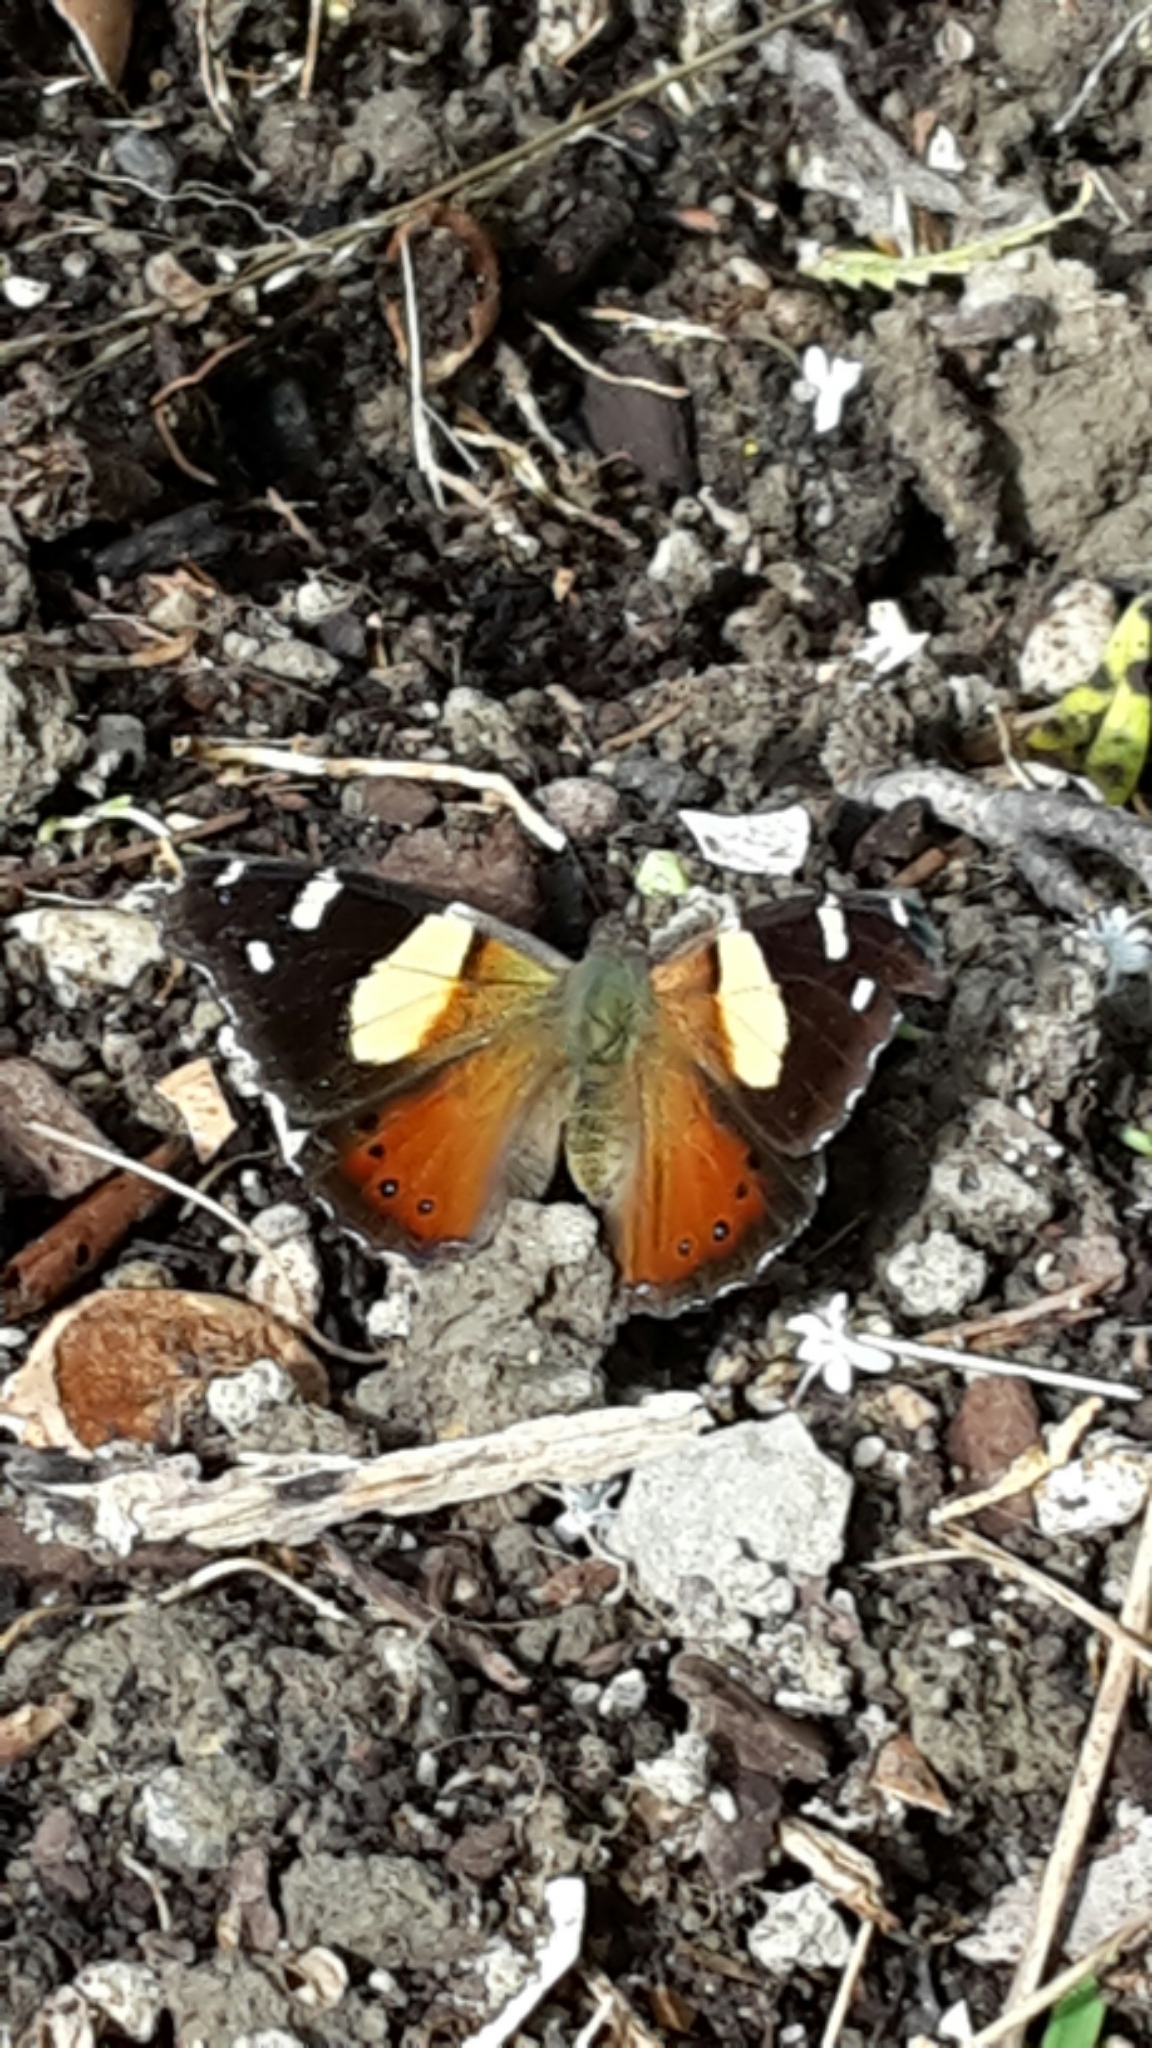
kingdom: Animalia
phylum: Arthropoda
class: Insecta
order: Lepidoptera
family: Nymphalidae
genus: Vanessa
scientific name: Vanessa itea
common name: Yellow admiral
